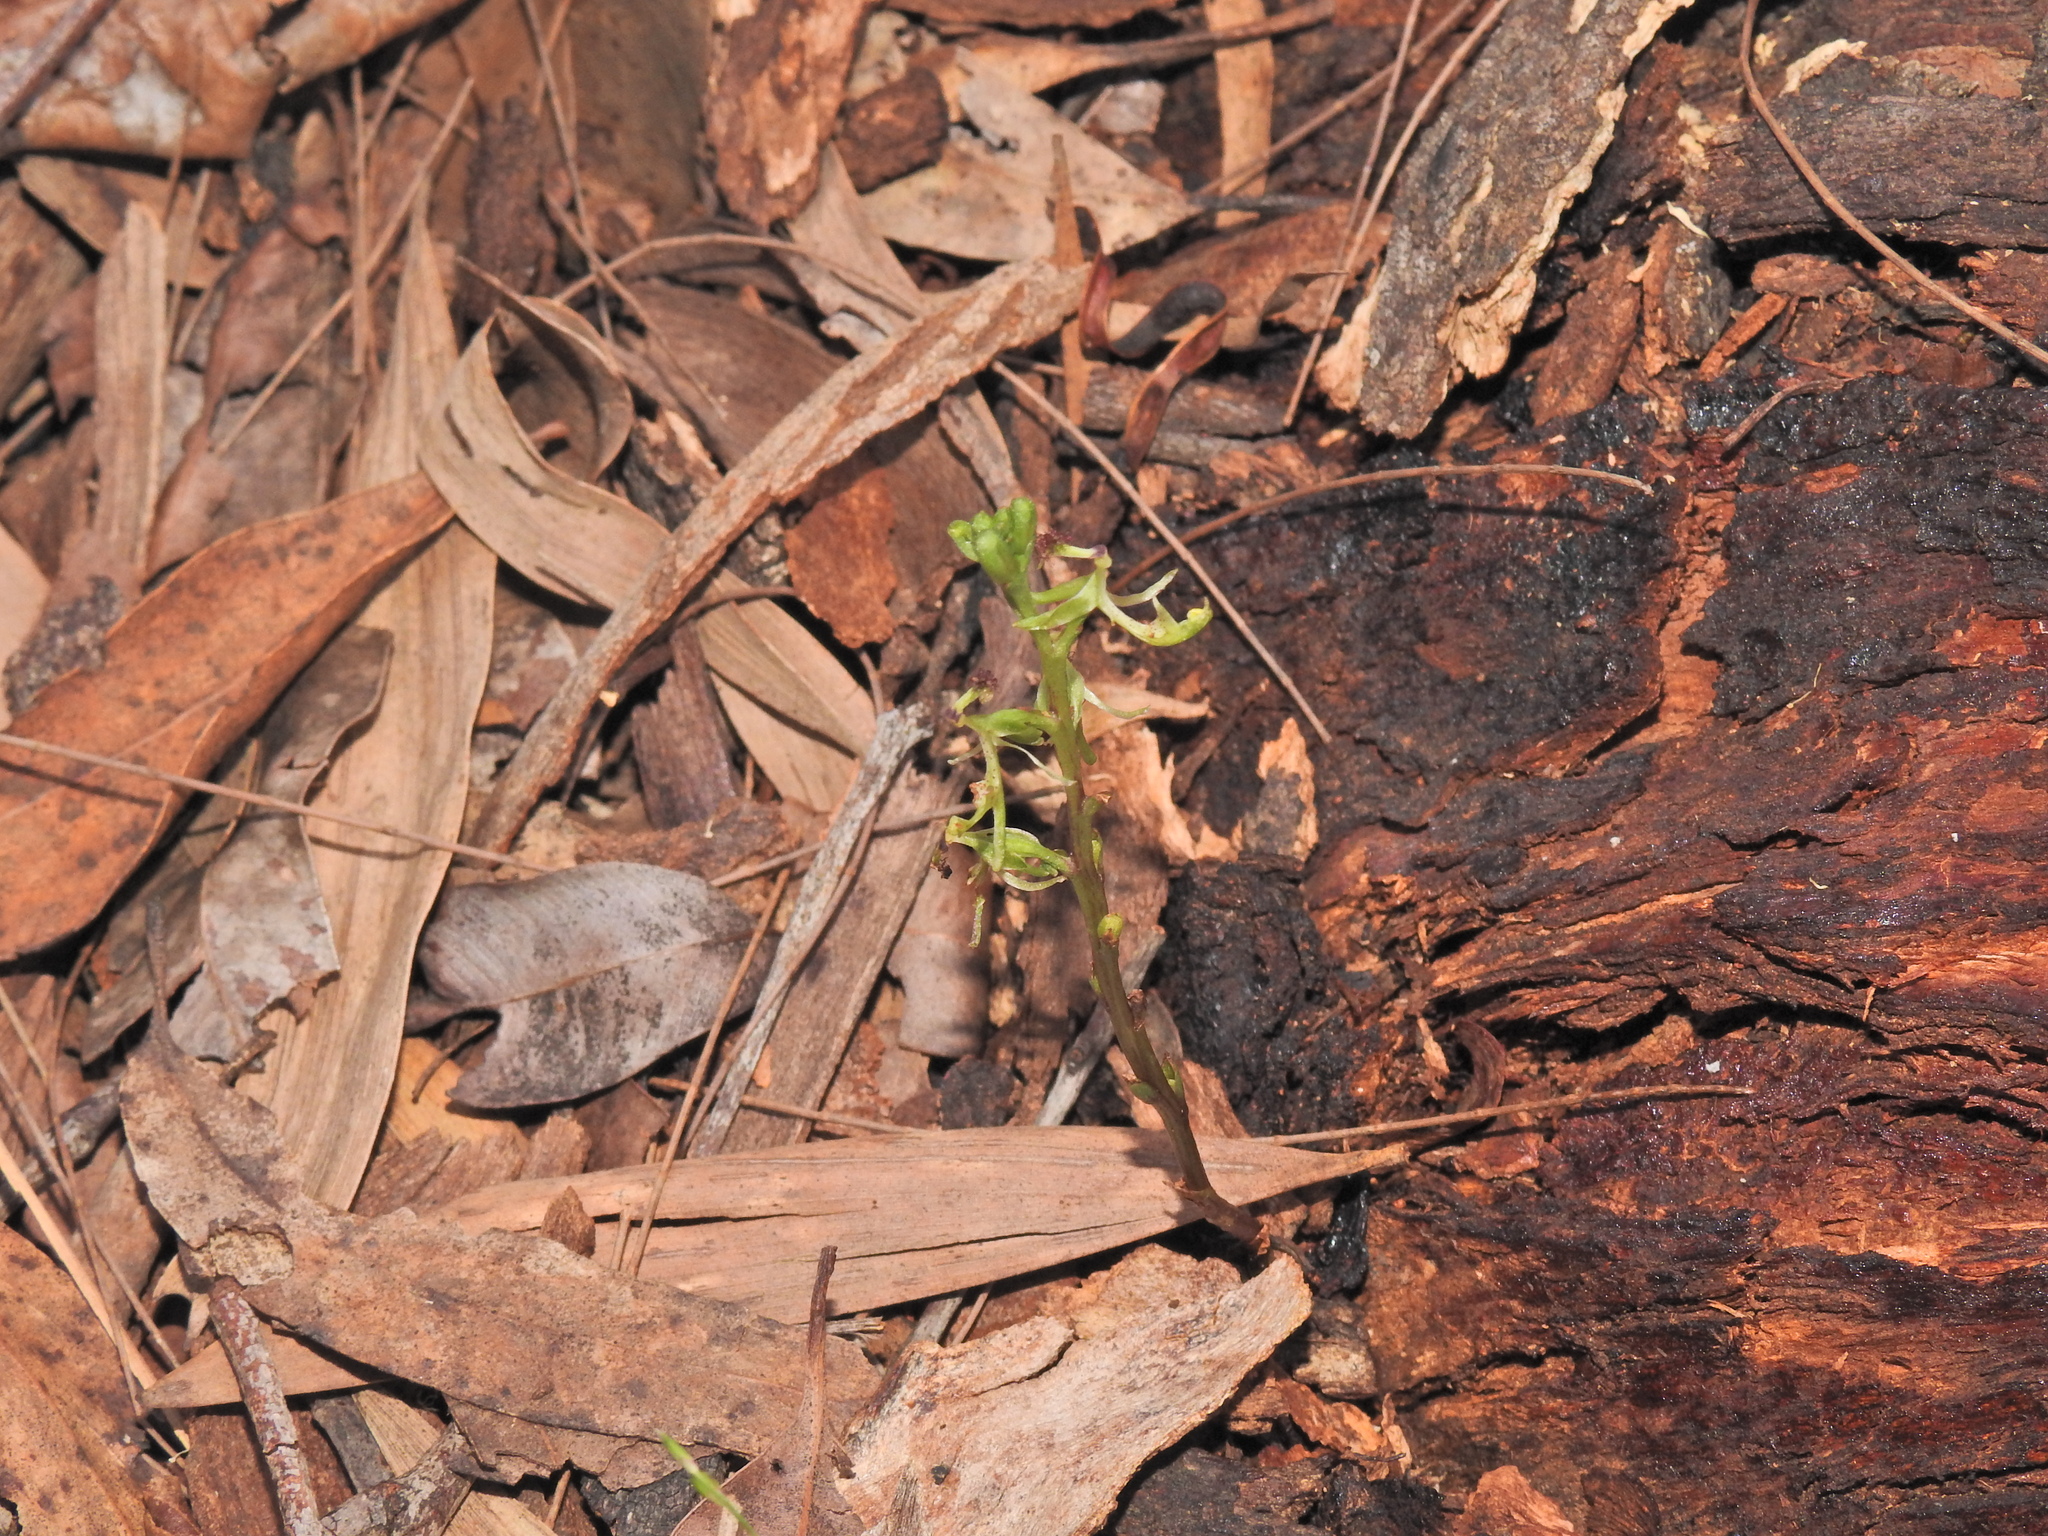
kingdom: Plantae
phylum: Tracheophyta
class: Liliopsida
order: Asparagales
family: Orchidaceae
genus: Arthrochilus
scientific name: Arthrochilus prolixus
